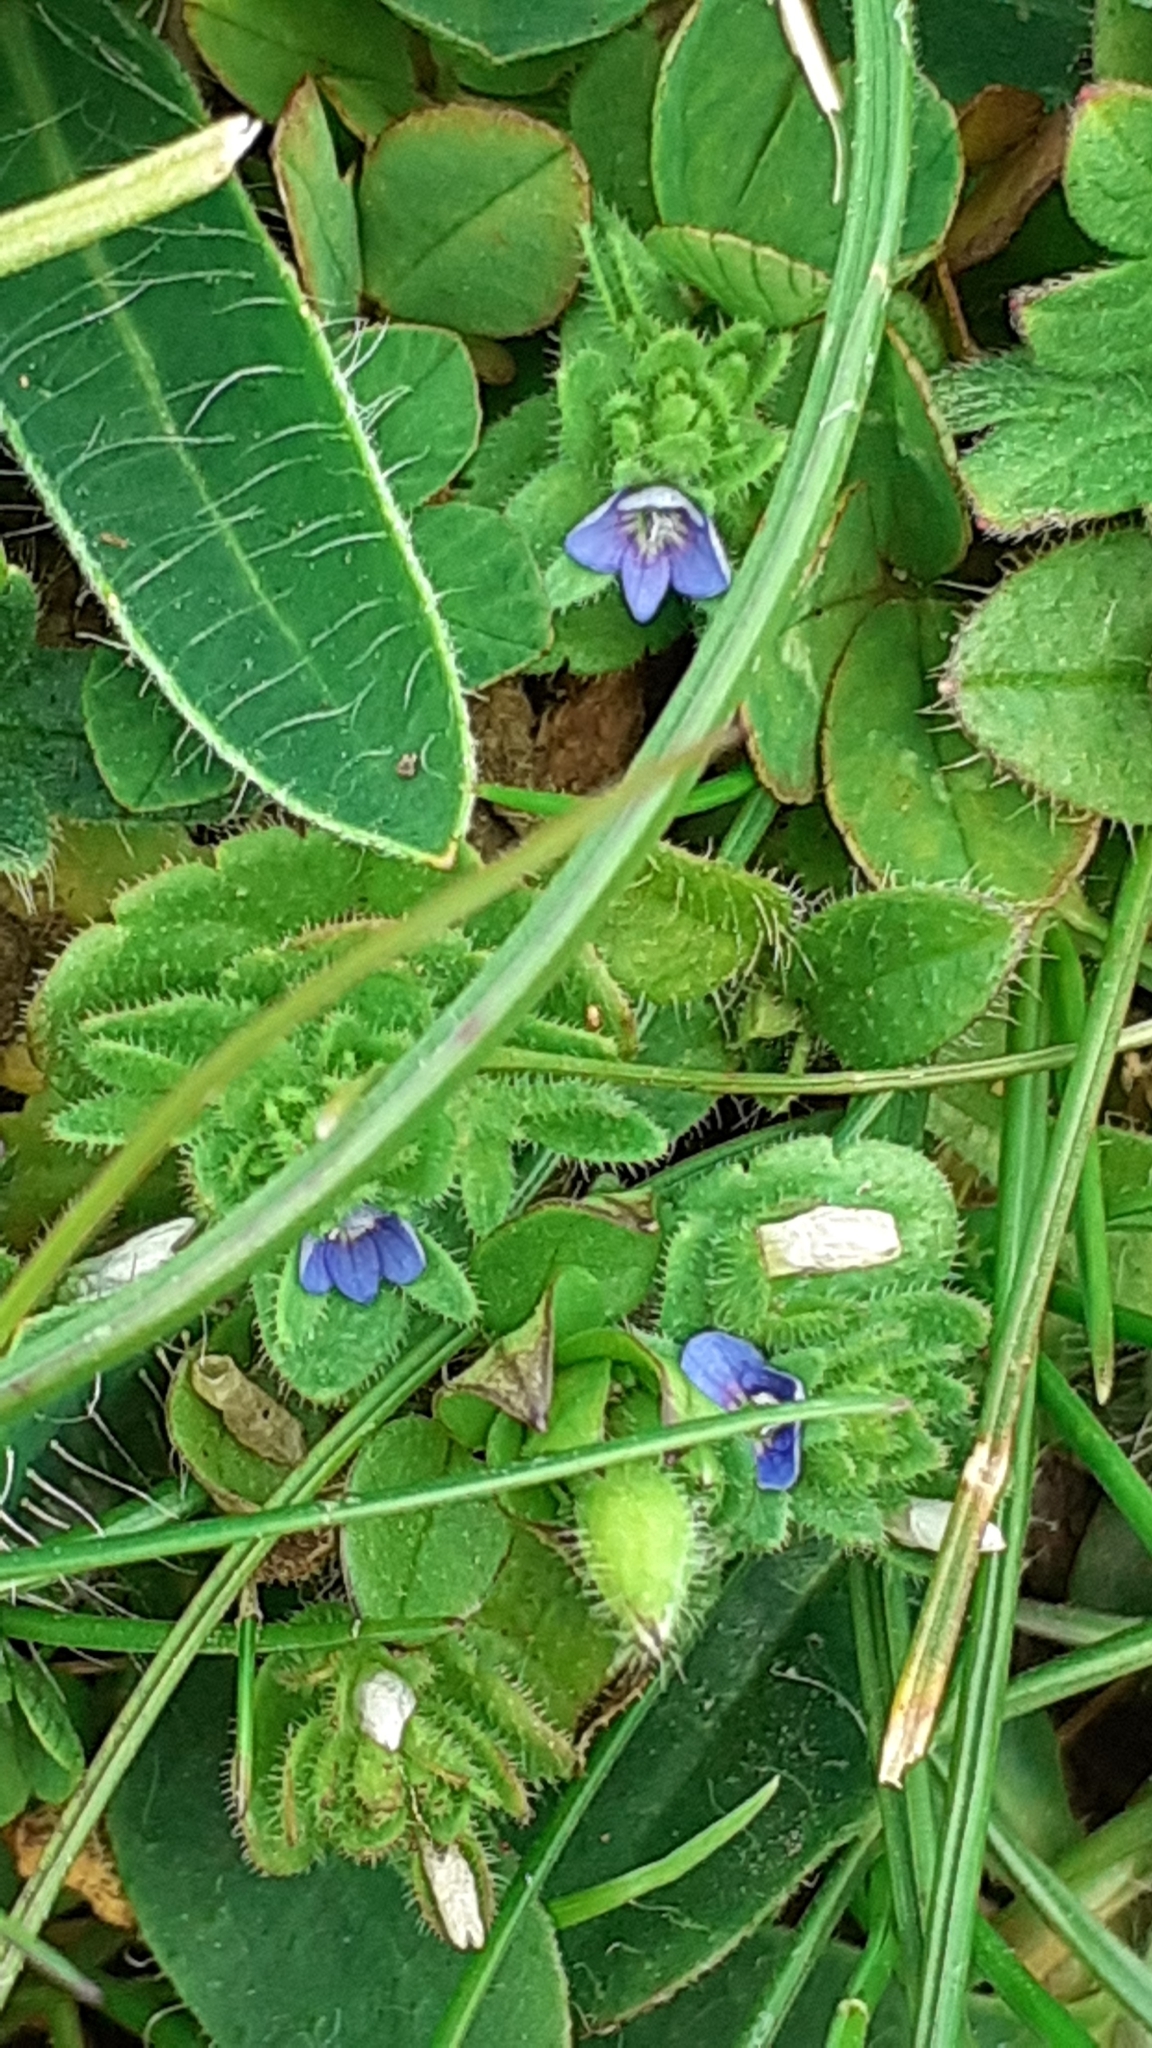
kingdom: Plantae
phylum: Tracheophyta
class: Magnoliopsida
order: Lamiales
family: Plantaginaceae
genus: Veronica
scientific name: Veronica arvensis
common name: Corn speedwell
